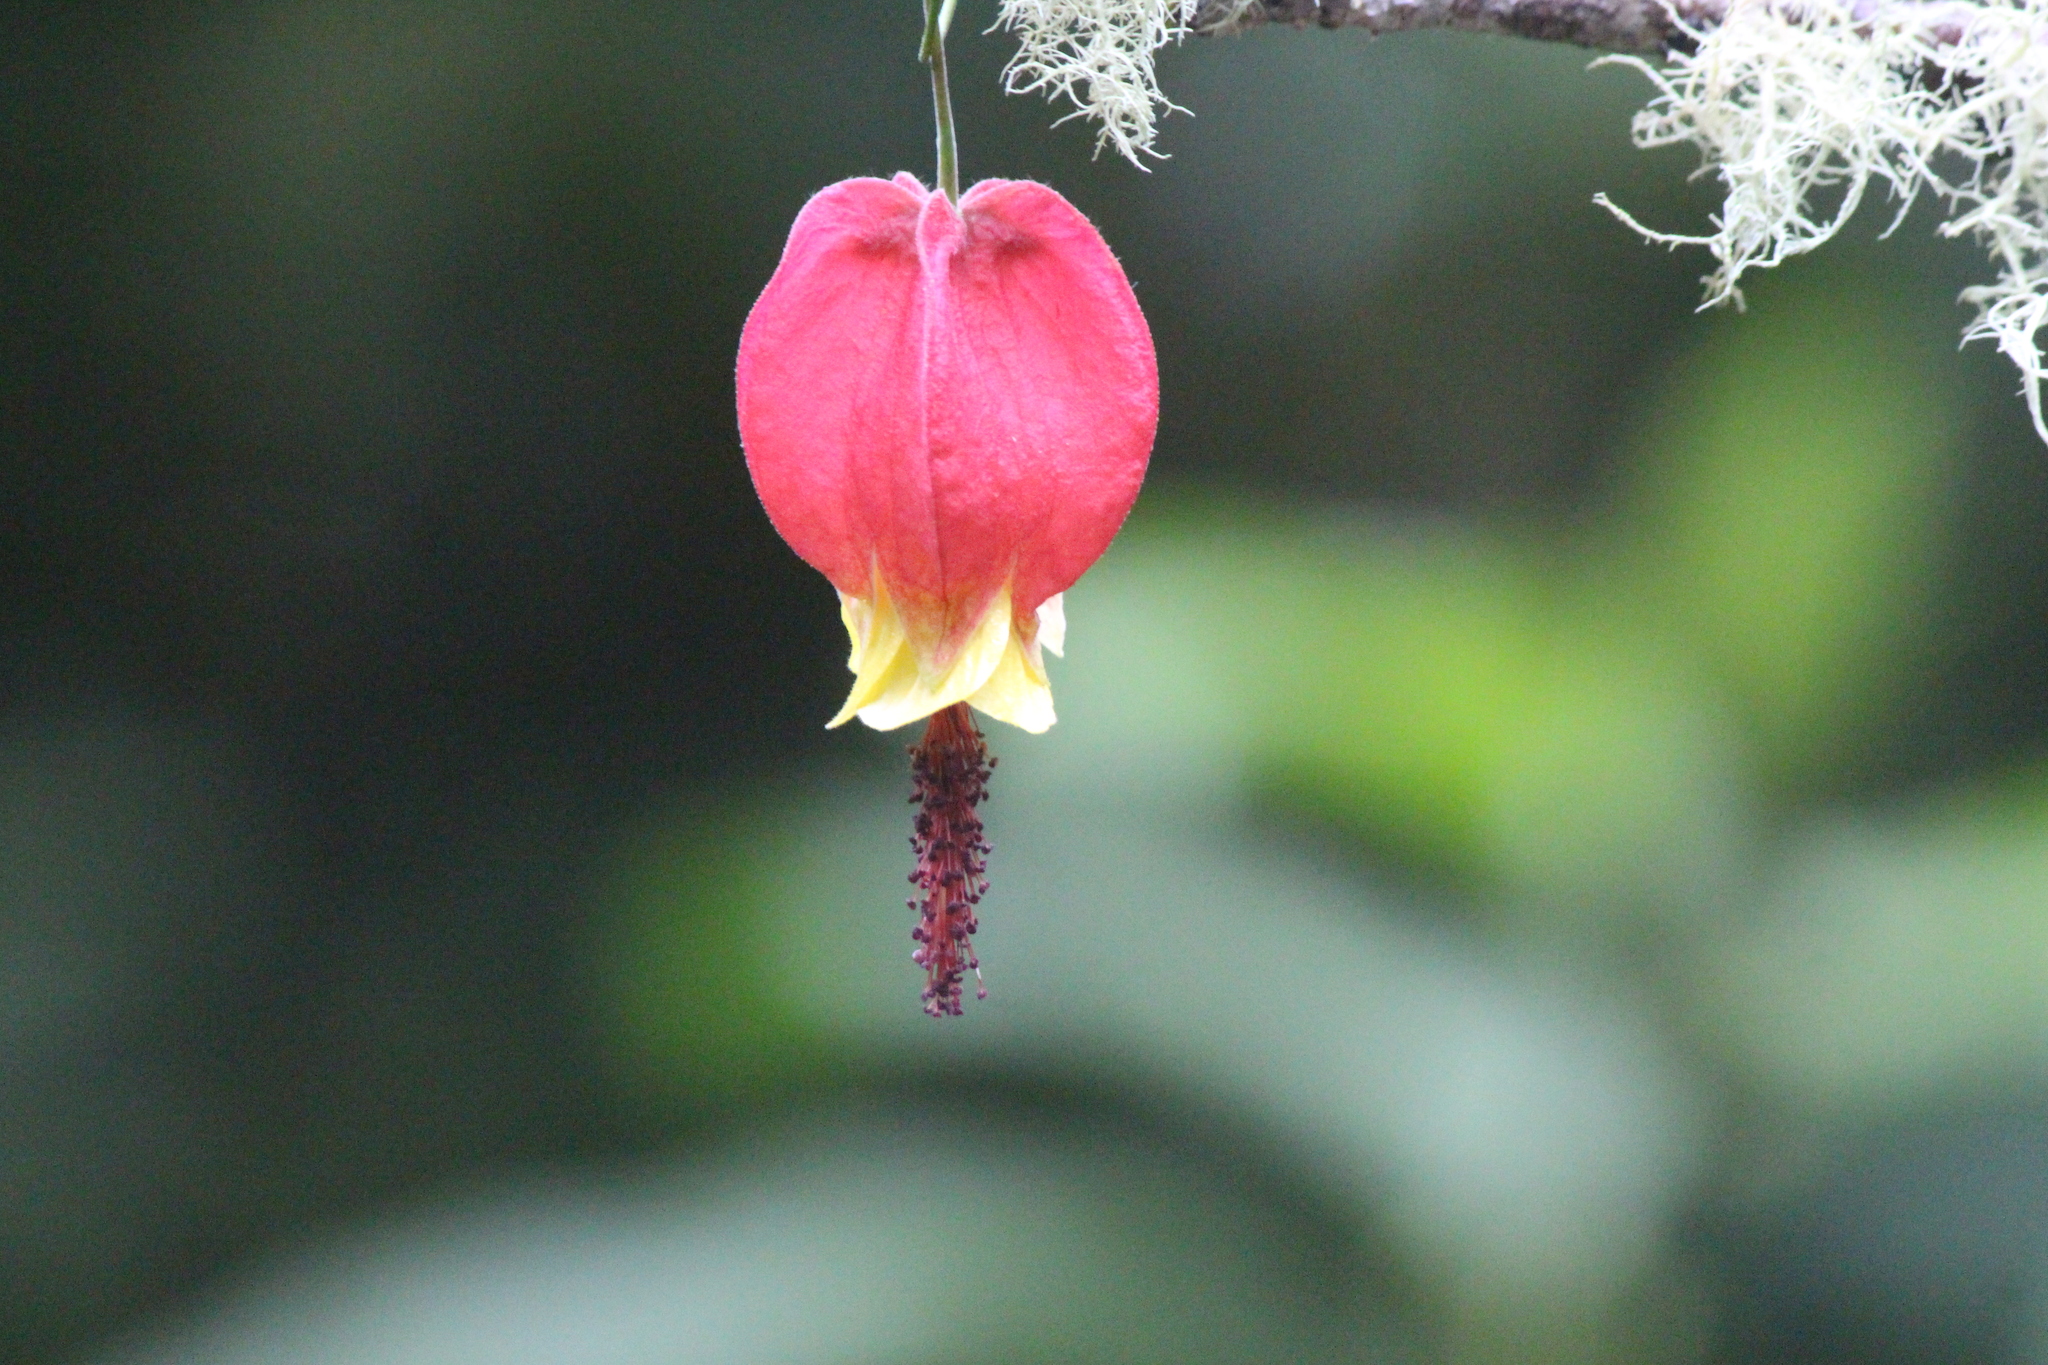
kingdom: Plantae
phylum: Tracheophyta
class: Magnoliopsida
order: Malvales
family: Malvaceae
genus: Callianthe
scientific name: Callianthe megapotamica
